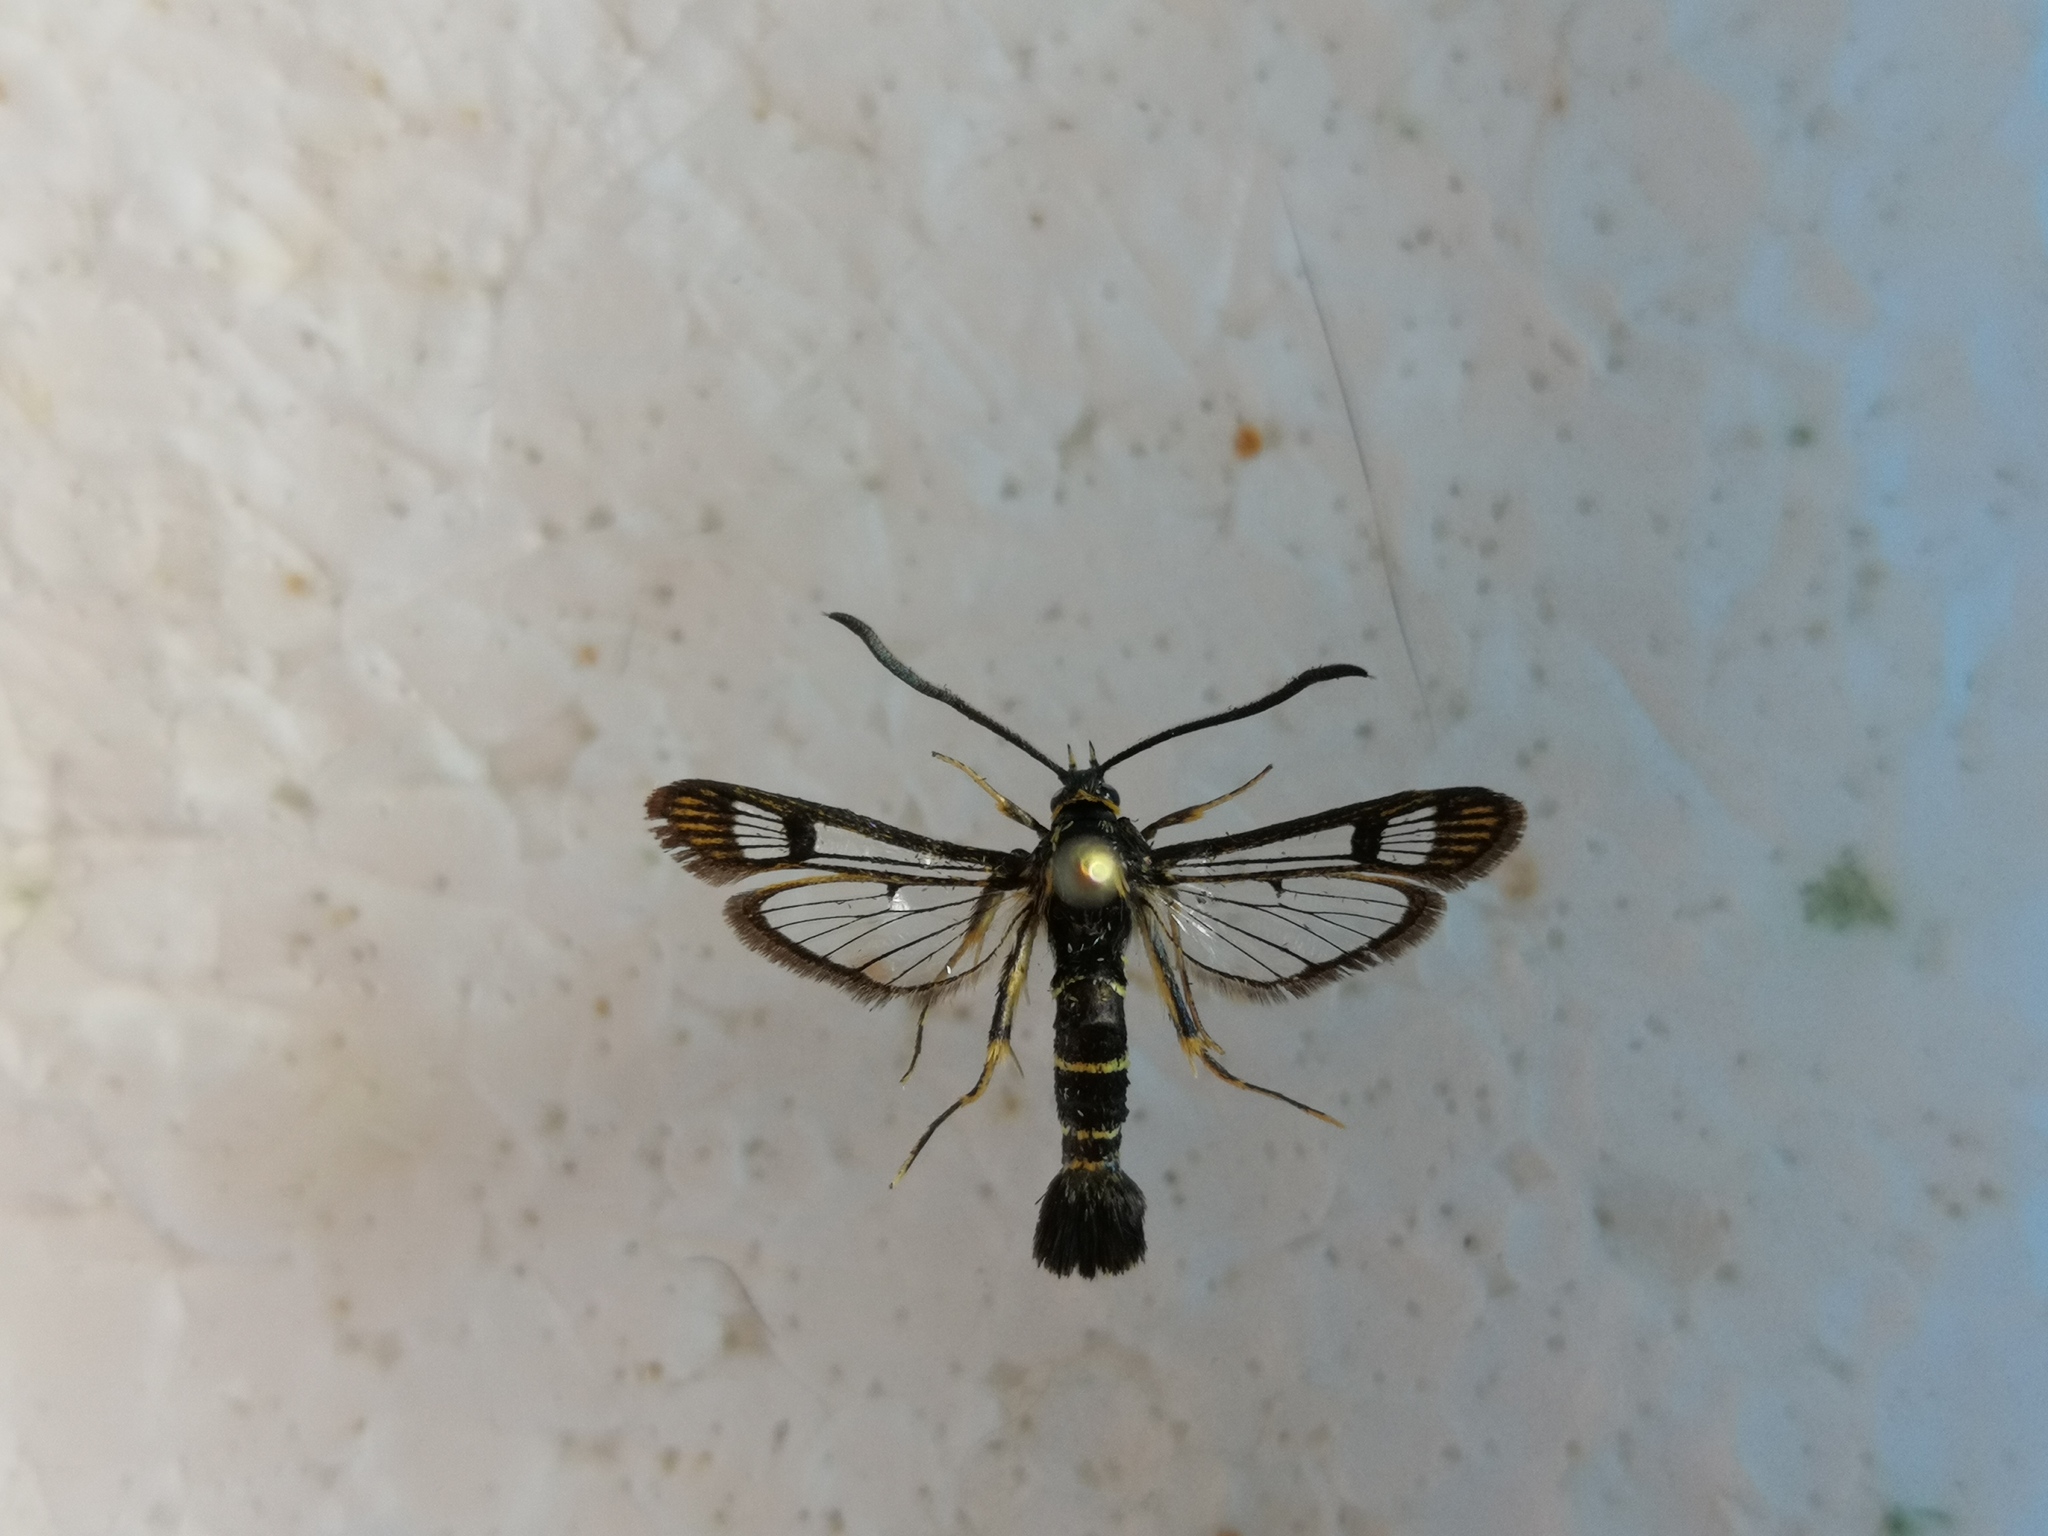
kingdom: Animalia
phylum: Arthropoda
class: Insecta
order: Lepidoptera
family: Sesiidae
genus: Synanthedon
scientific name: Synanthedon tipuliformis
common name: Currant clearwing
